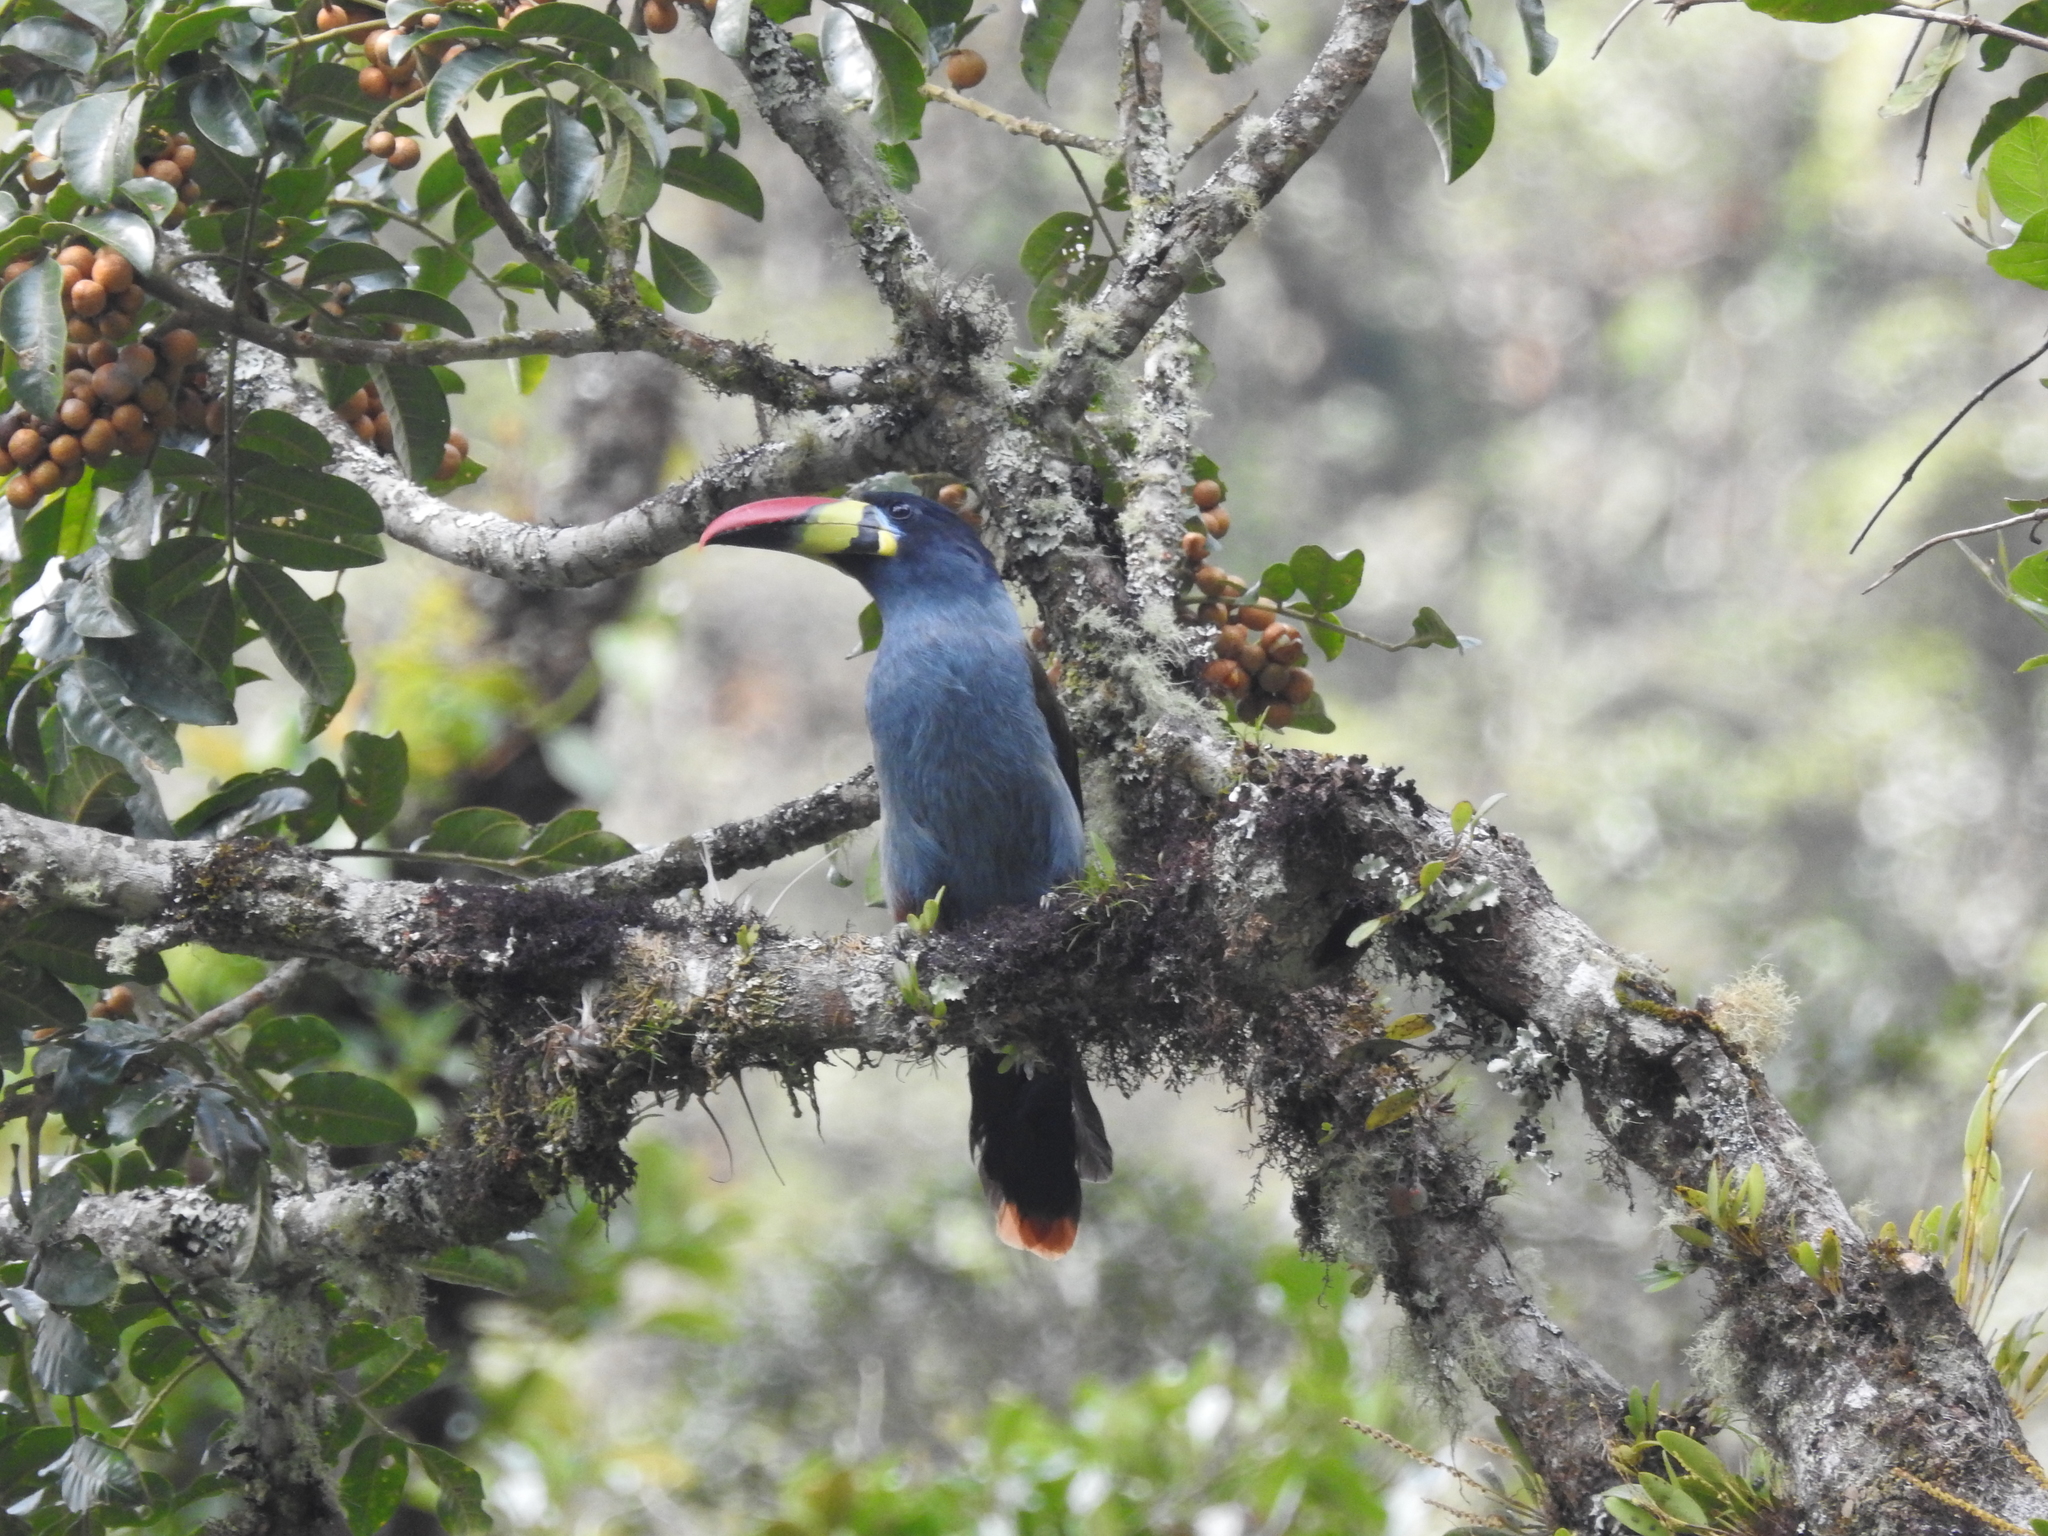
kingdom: Animalia
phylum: Chordata
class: Aves
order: Piciformes
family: Ramphastidae
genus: Andigena
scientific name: Andigena hypoglauca
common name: Grey-breasted mountain toucan
